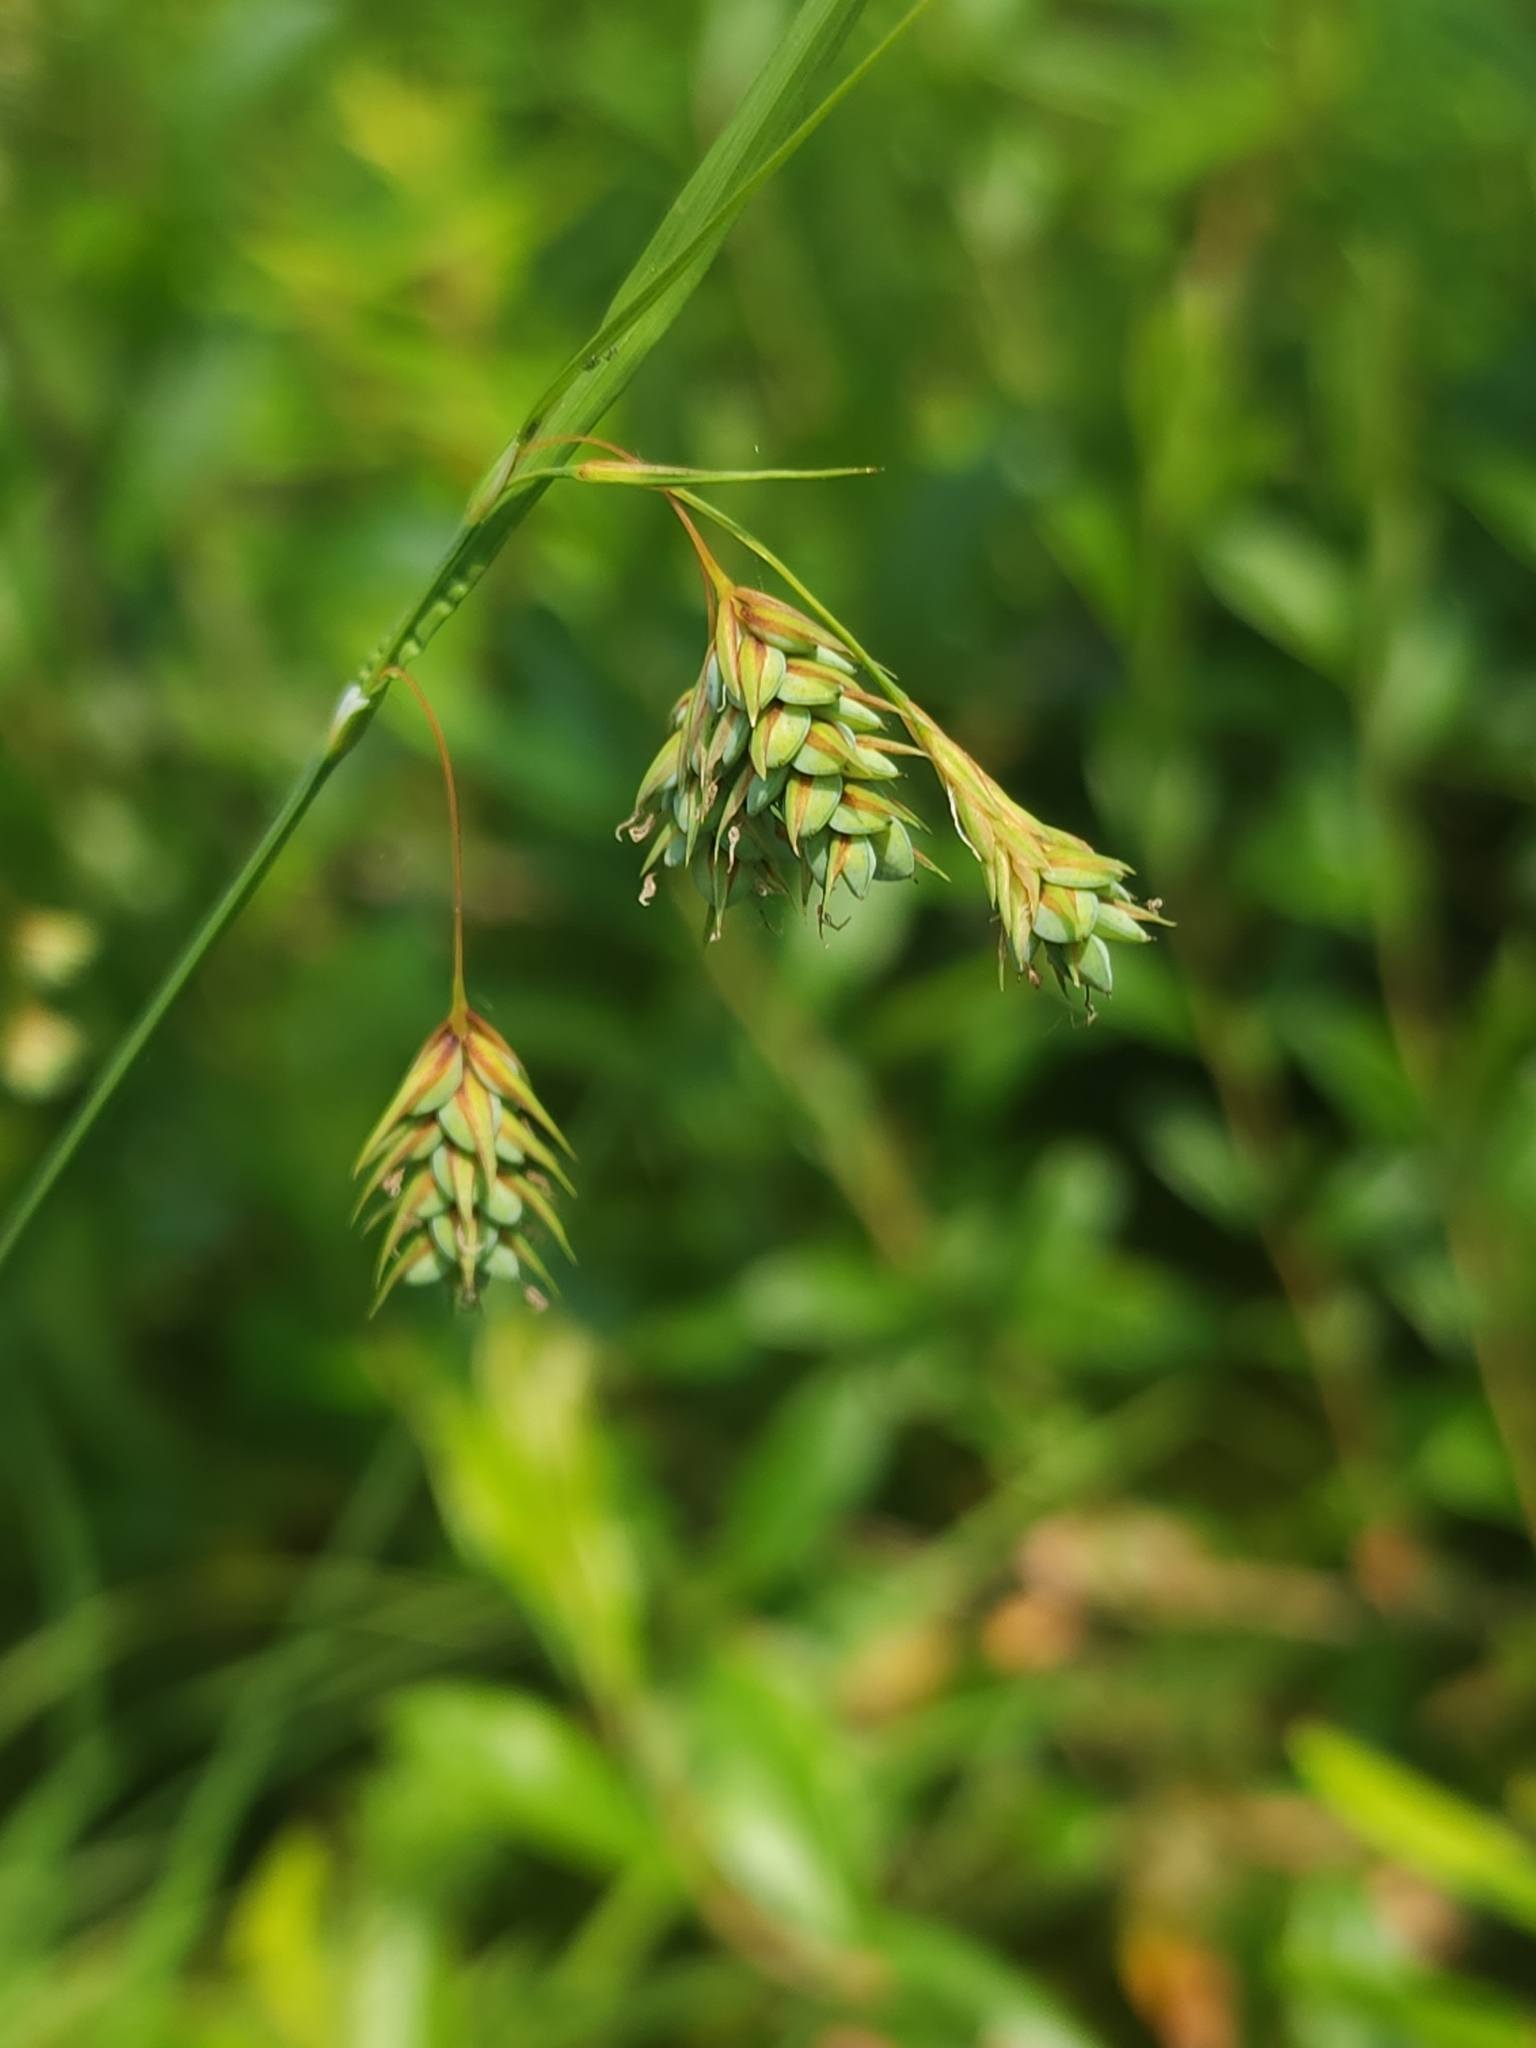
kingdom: Plantae
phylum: Tracheophyta
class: Liliopsida
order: Poales
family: Cyperaceae
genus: Carex
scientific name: Carex magellanica
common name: Bog sedge
